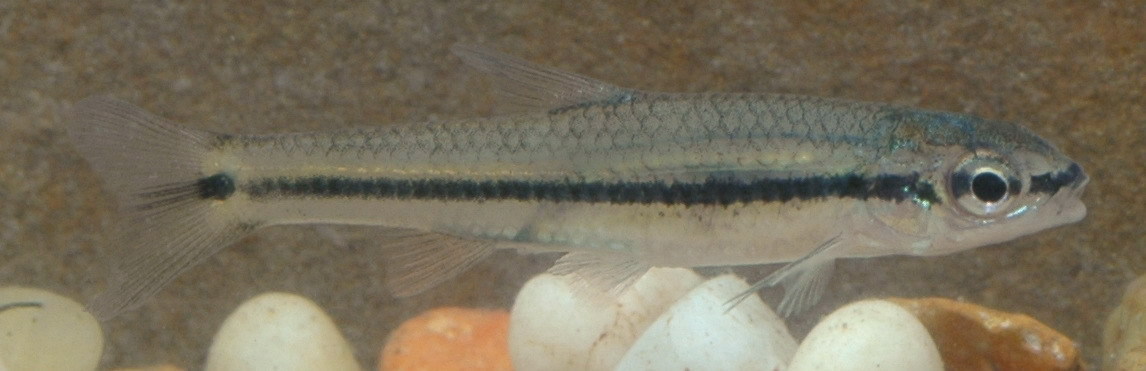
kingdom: Animalia
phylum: Chordata
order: Cypriniformes
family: Cyprinidae
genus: Notropis
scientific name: Notropis atrocaudalis
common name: Blackspot shiner
